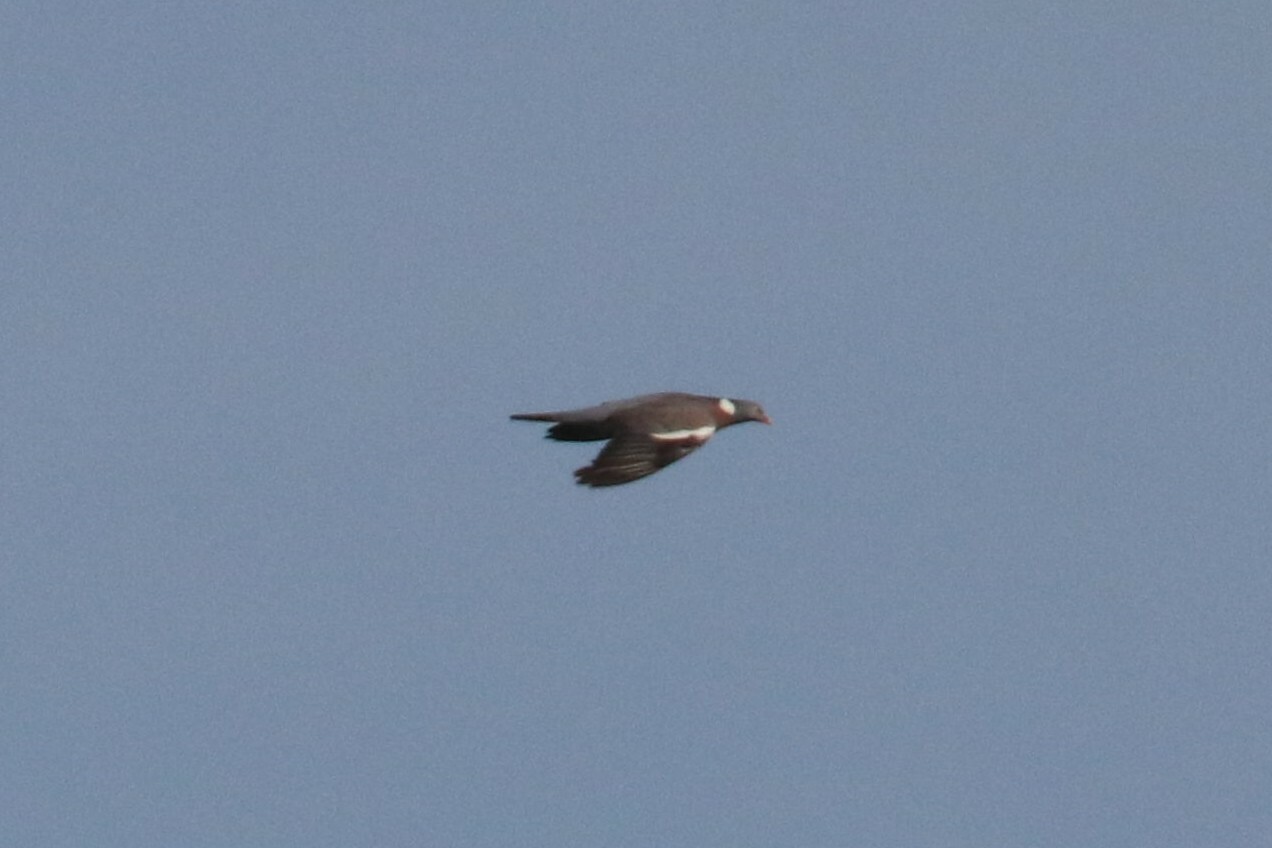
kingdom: Animalia
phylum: Chordata
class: Aves
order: Columbiformes
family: Columbidae
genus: Columba
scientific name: Columba palumbus
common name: Common wood pigeon
